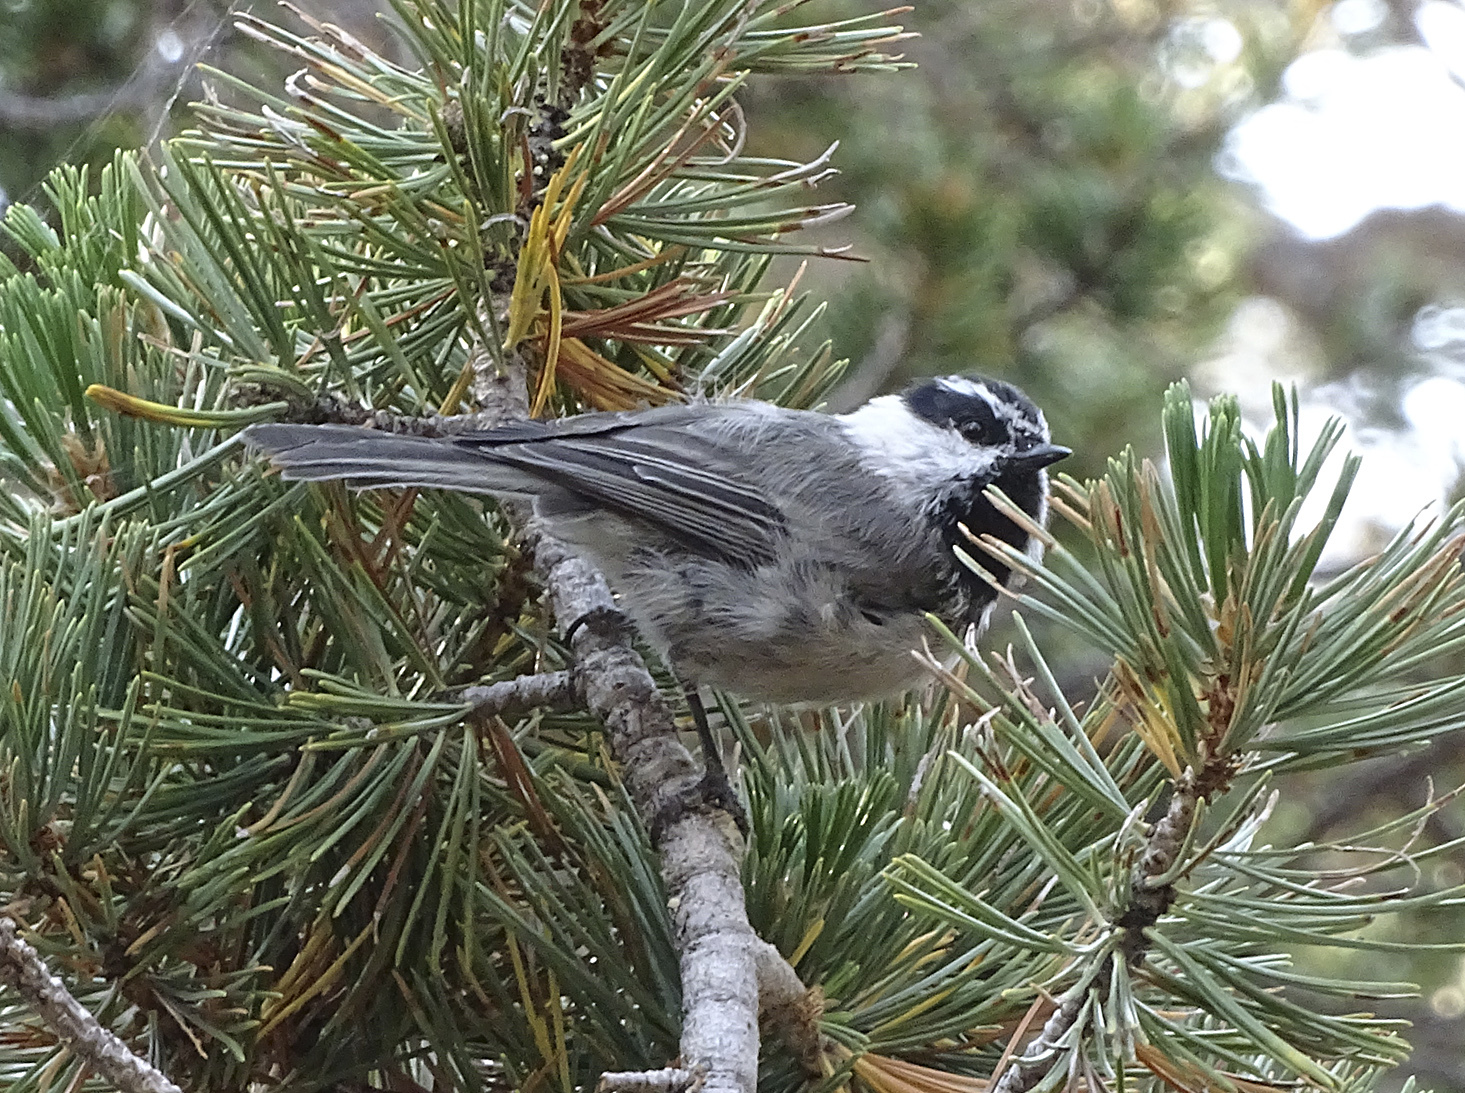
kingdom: Animalia
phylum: Chordata
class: Aves
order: Passeriformes
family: Paridae
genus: Poecile
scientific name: Poecile gambeli
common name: Mountain chickadee
